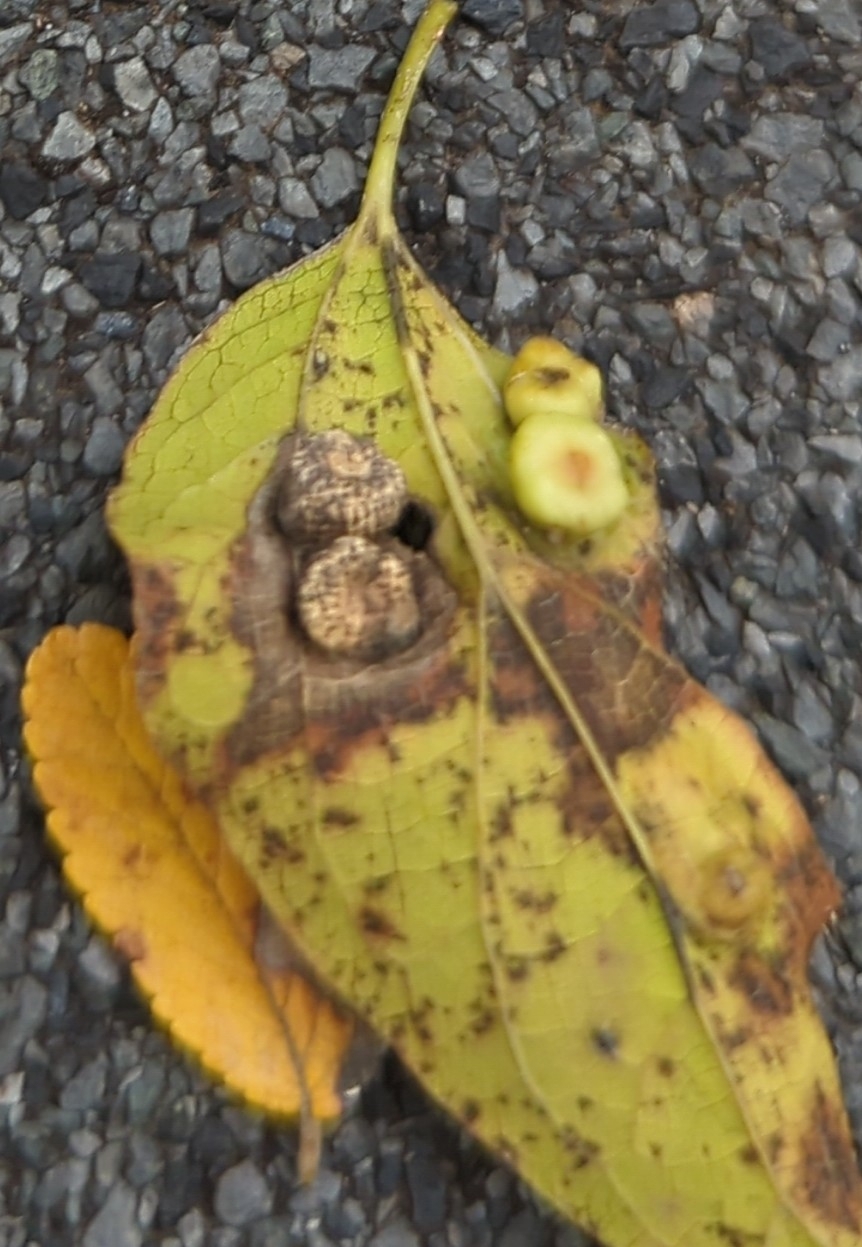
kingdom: Animalia
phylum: Arthropoda
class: Insecta
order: Hemiptera
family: Aphalaridae
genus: Pachypsylla
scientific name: Pachypsylla celtidismamma
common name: Hackberry nipplegall psyllid
